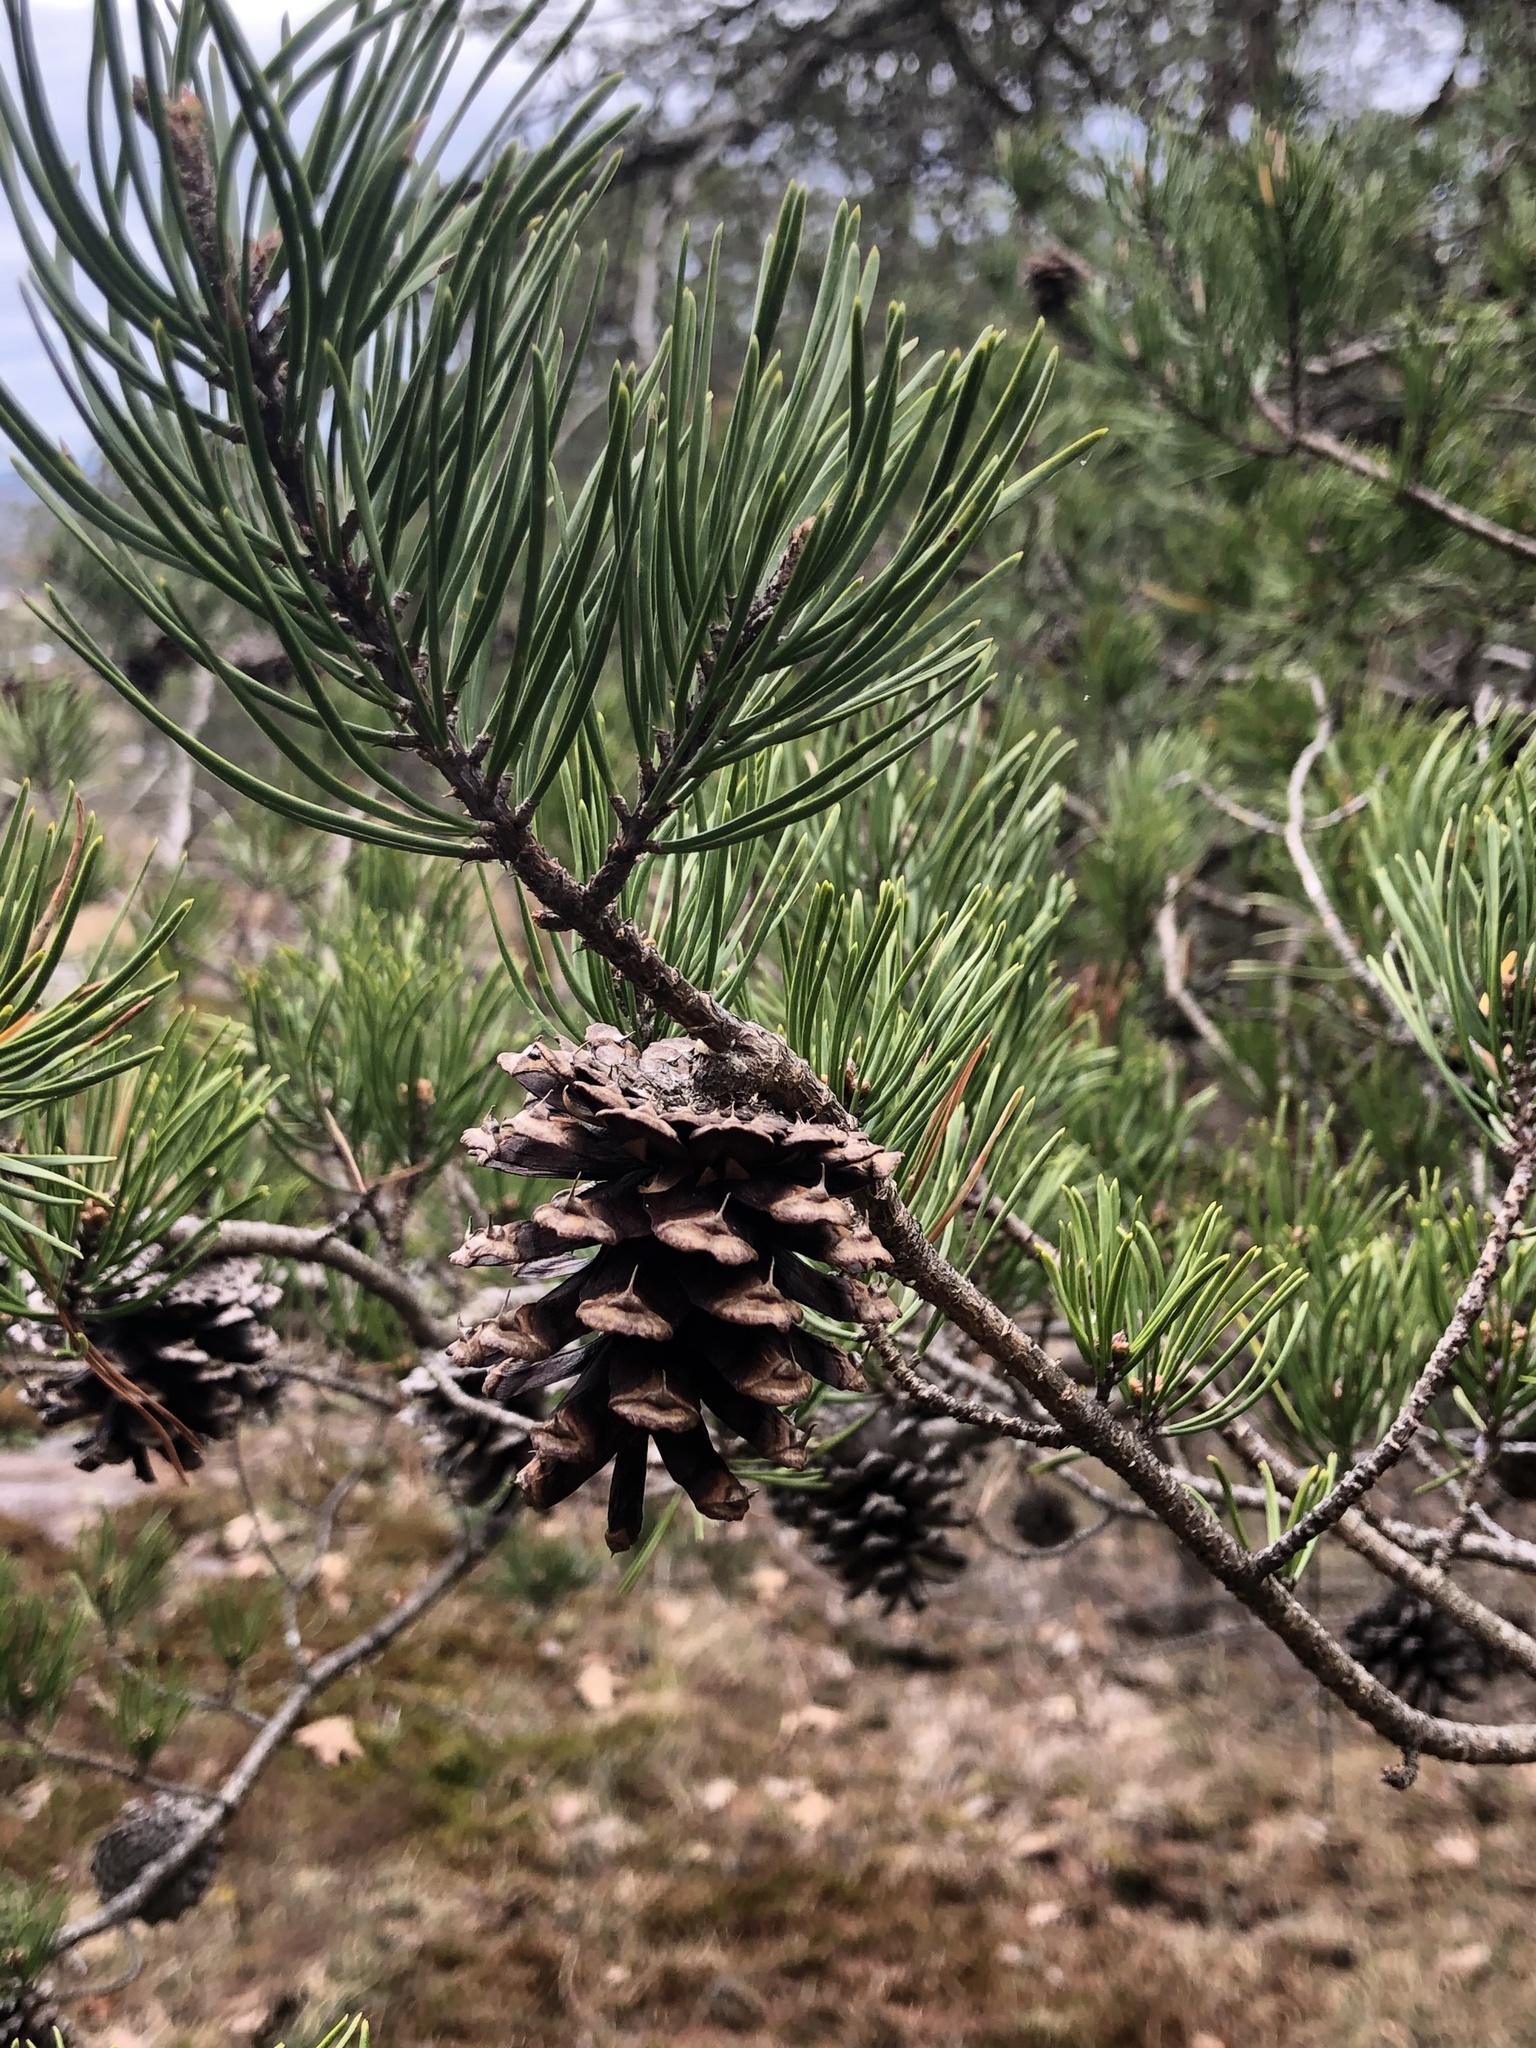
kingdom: Plantae
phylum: Tracheophyta
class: Pinopsida
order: Pinales
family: Pinaceae
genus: Pinus
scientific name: Pinus virginiana
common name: Scrub pine
